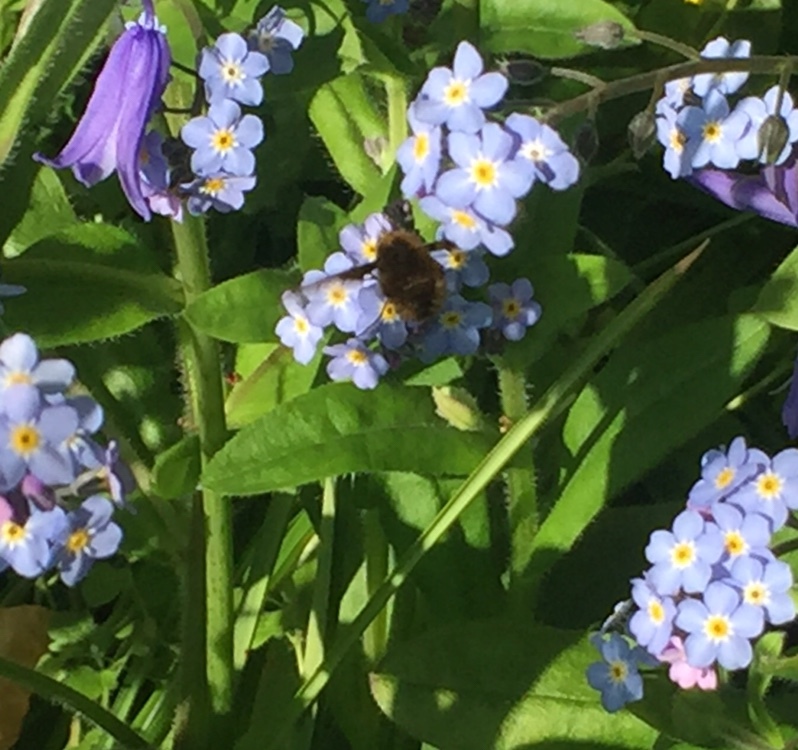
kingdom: Animalia
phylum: Arthropoda
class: Insecta
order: Diptera
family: Bombyliidae
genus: Bombylius
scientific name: Bombylius major
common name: Bee fly
